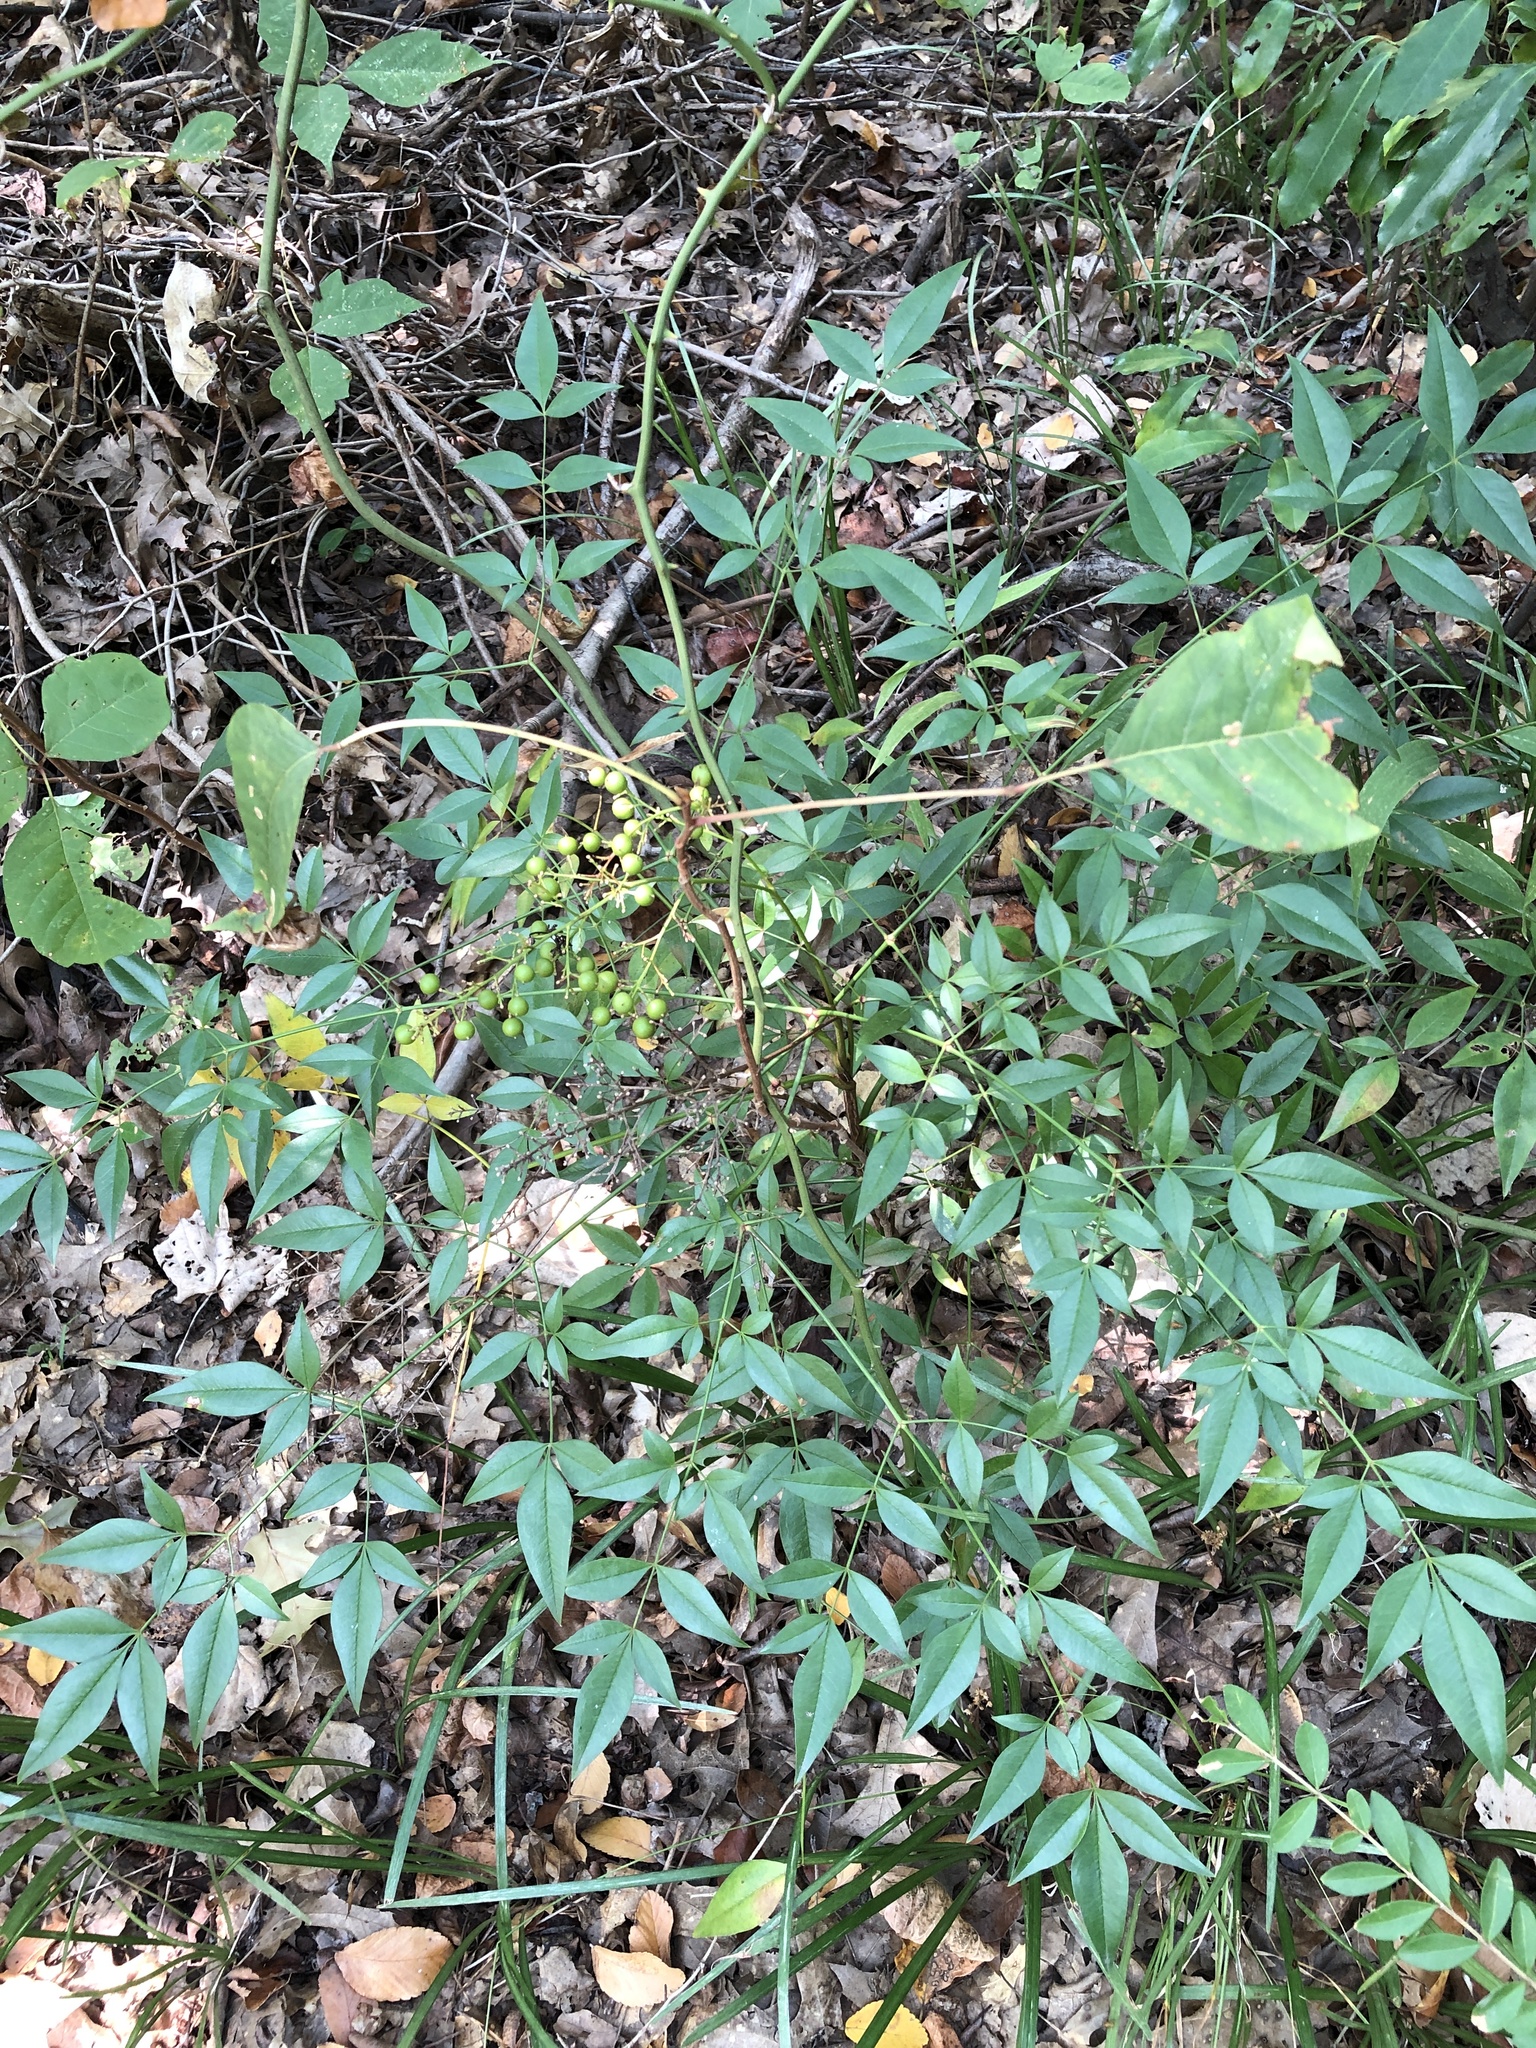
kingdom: Plantae
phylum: Tracheophyta
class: Magnoliopsida
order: Ranunculales
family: Berberidaceae
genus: Nandina
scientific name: Nandina domestica
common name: Sacred bamboo
